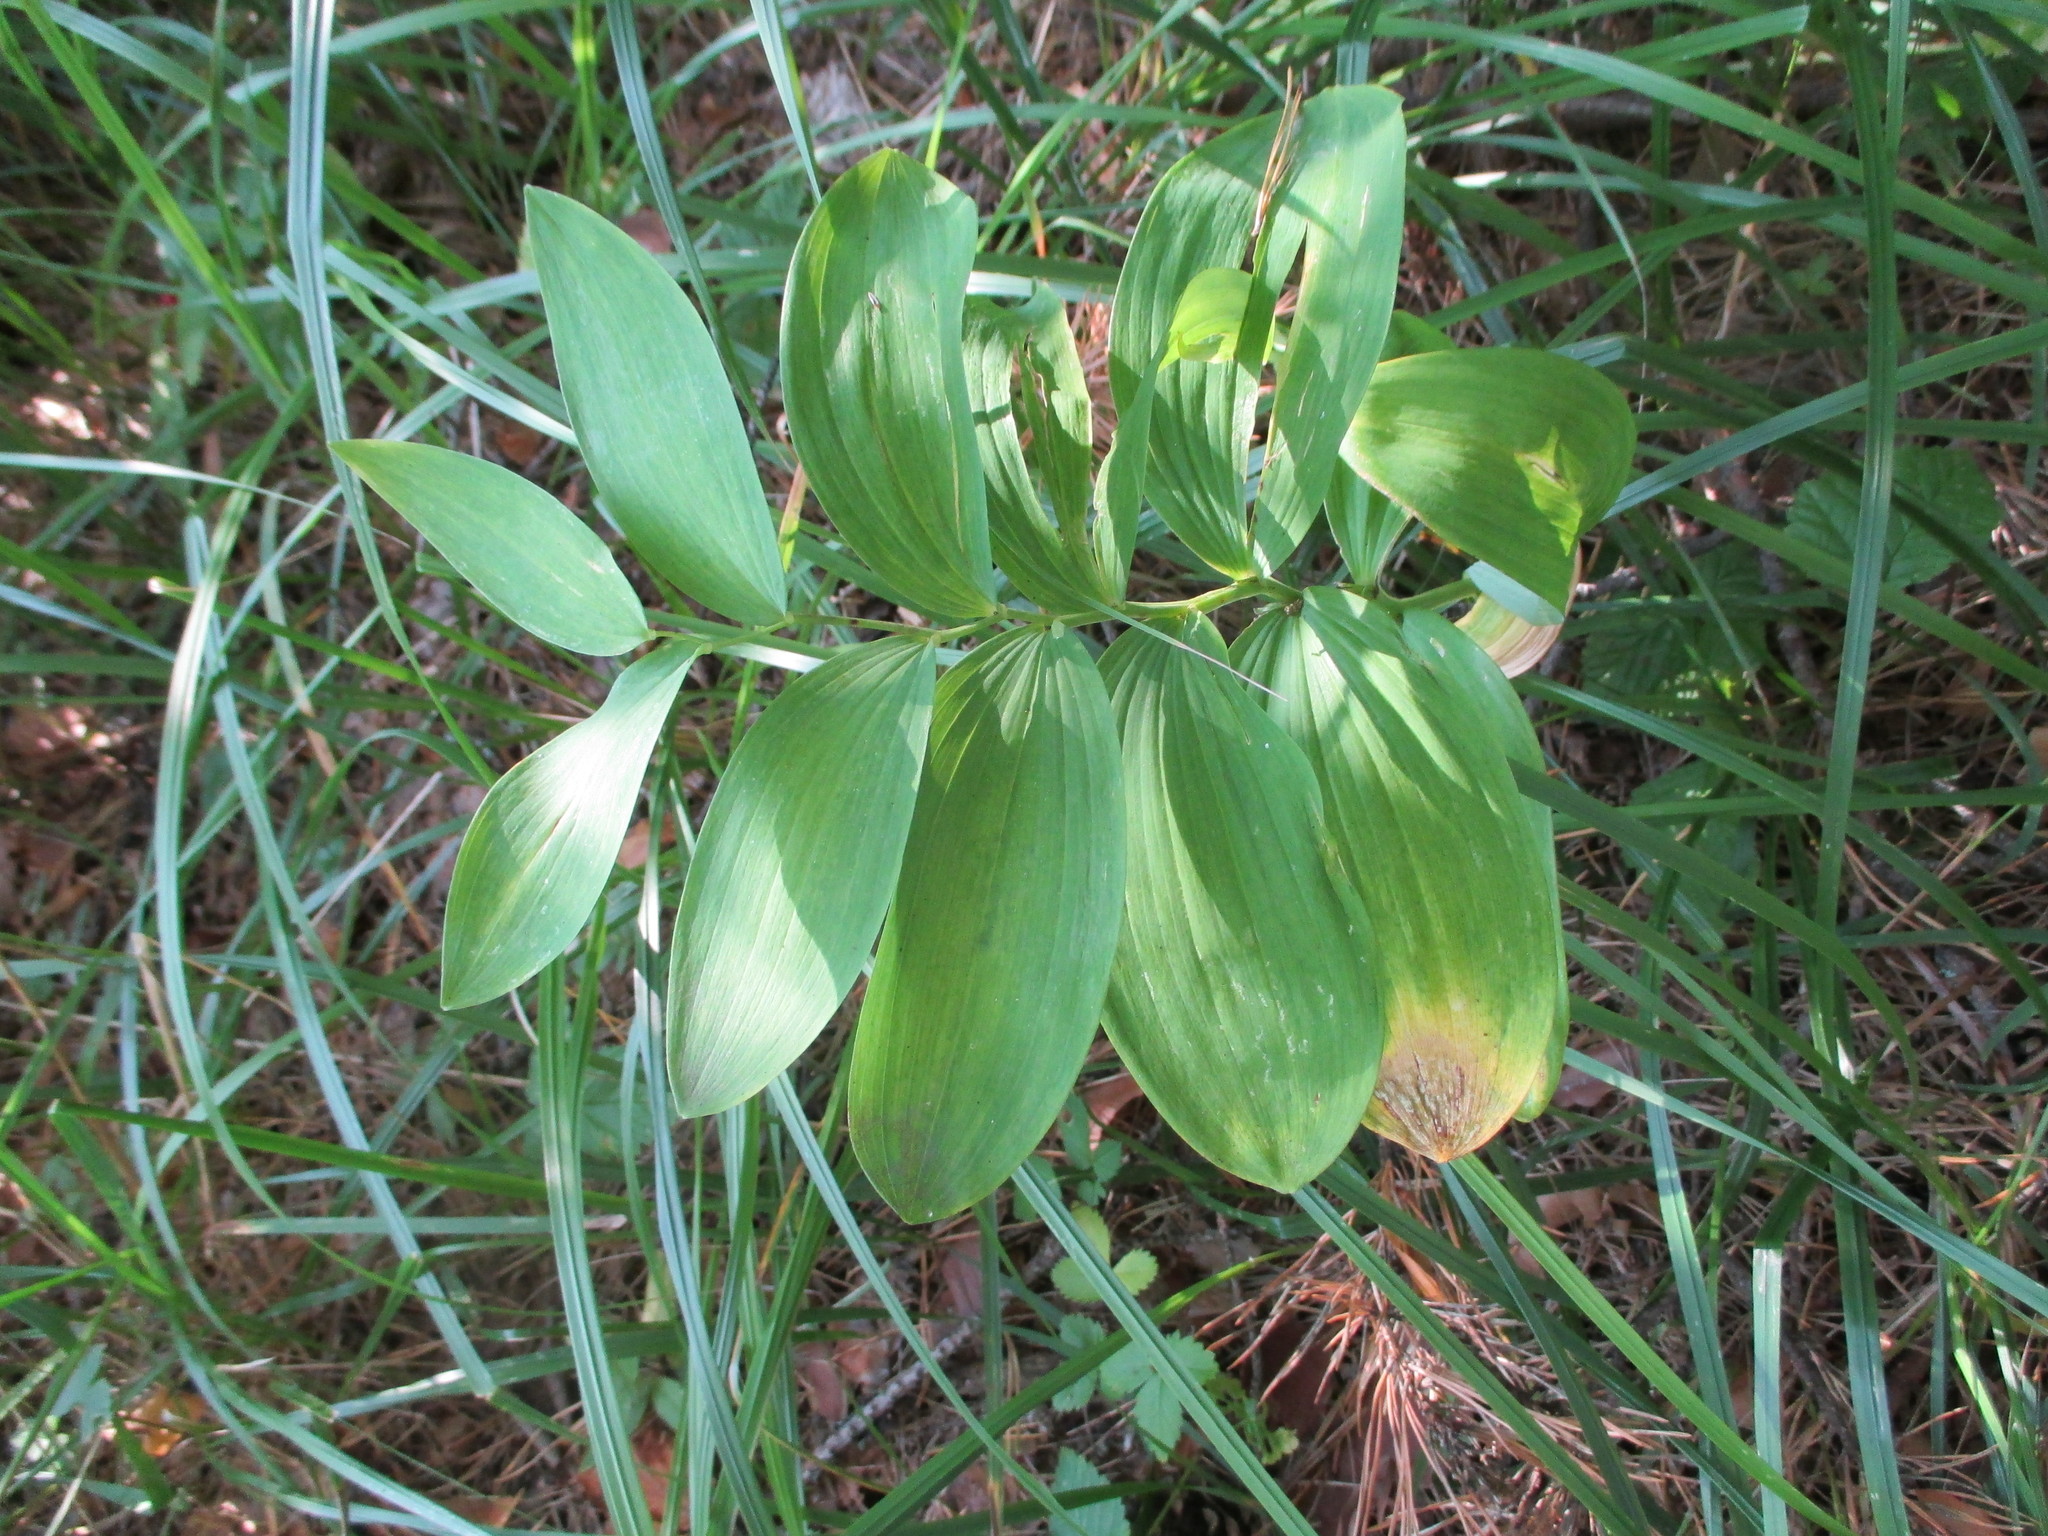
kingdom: Plantae
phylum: Tracheophyta
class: Liliopsida
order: Asparagales
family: Asparagaceae
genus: Polygonatum
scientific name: Polygonatum odoratum
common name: Angular solomon's-seal
